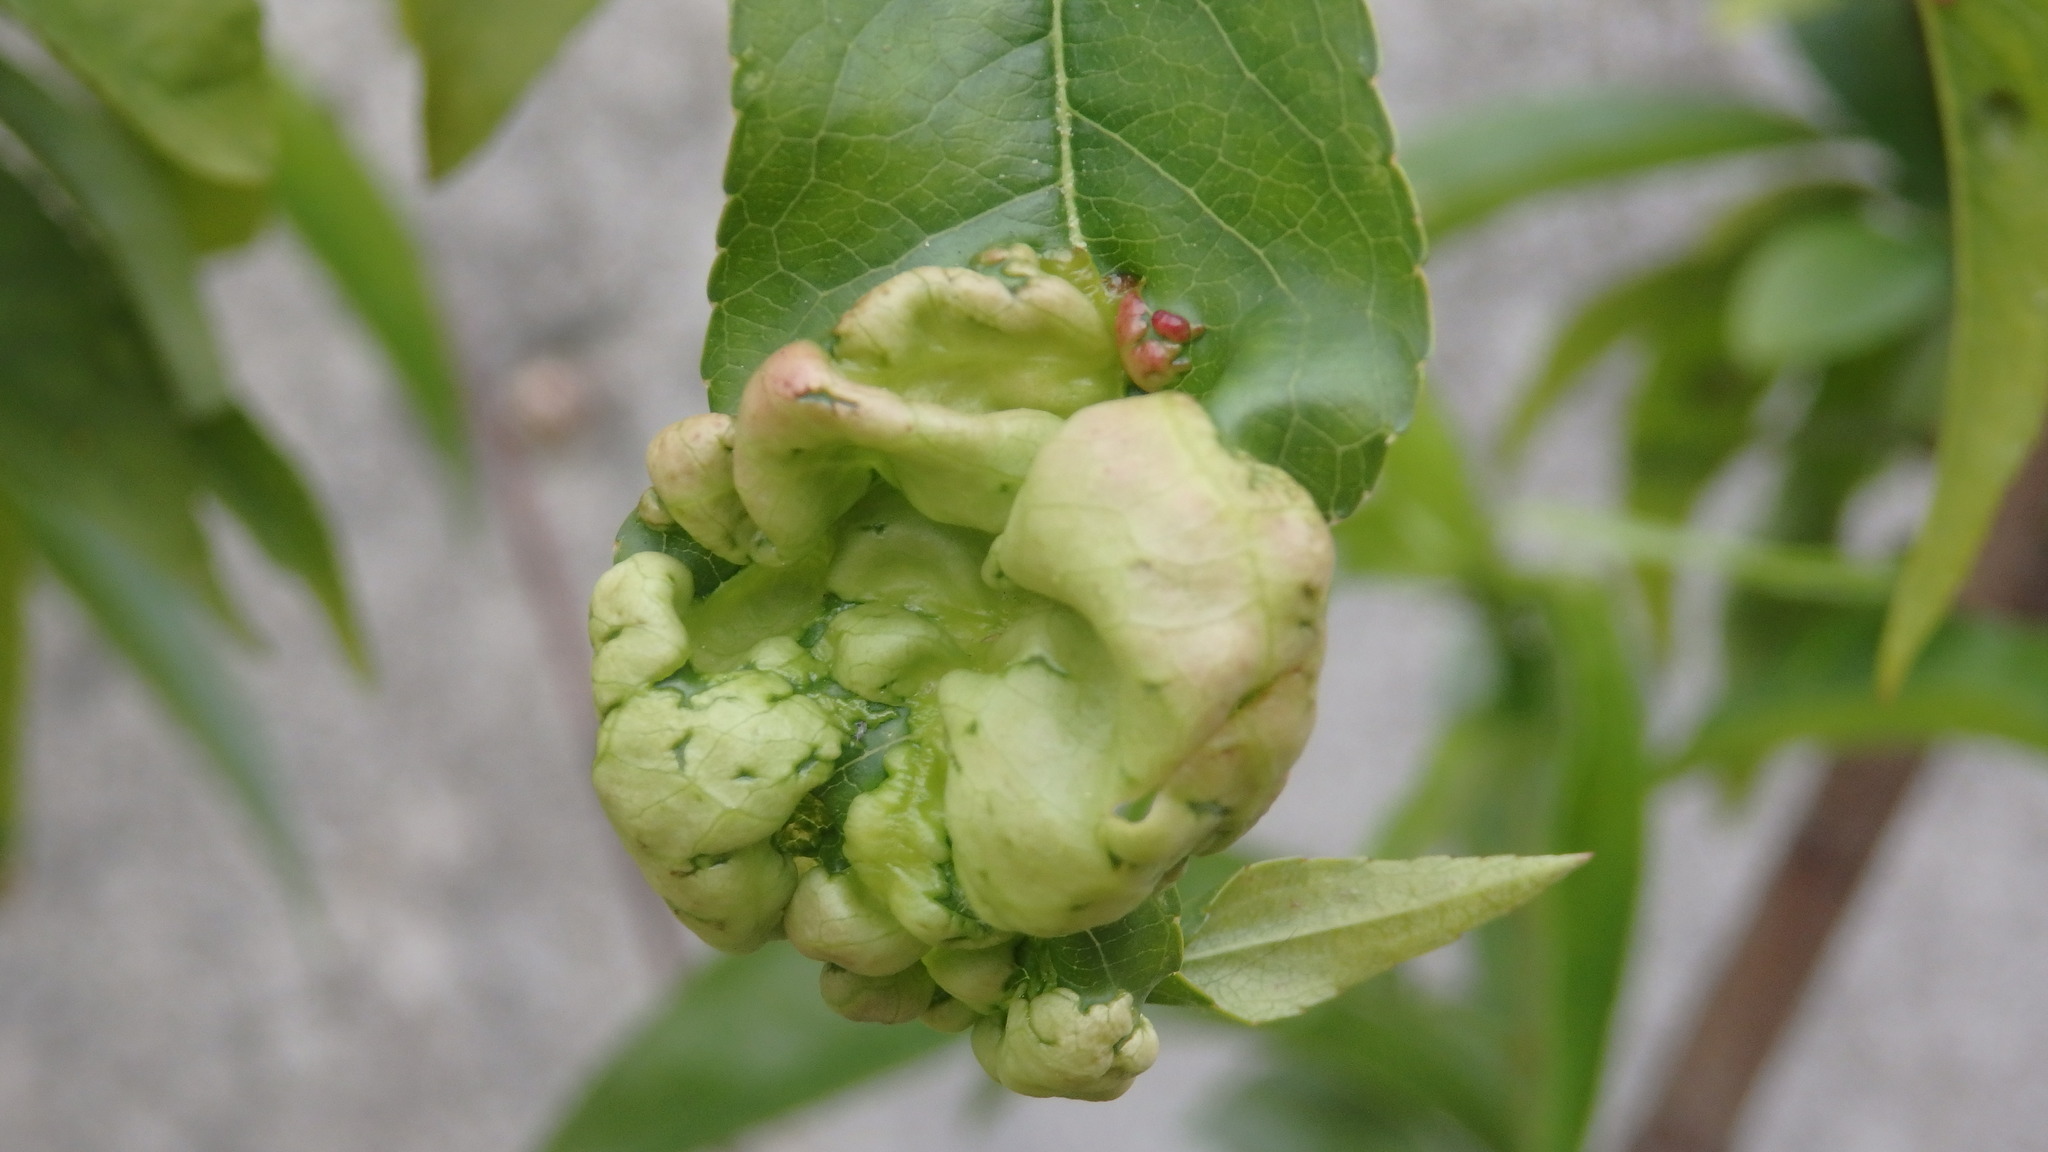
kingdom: Fungi
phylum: Ascomycota
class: Taphrinomycetes
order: Taphrinales
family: Taphrinaceae
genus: Taphrina
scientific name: Taphrina deformans
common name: Peach leaf curl
